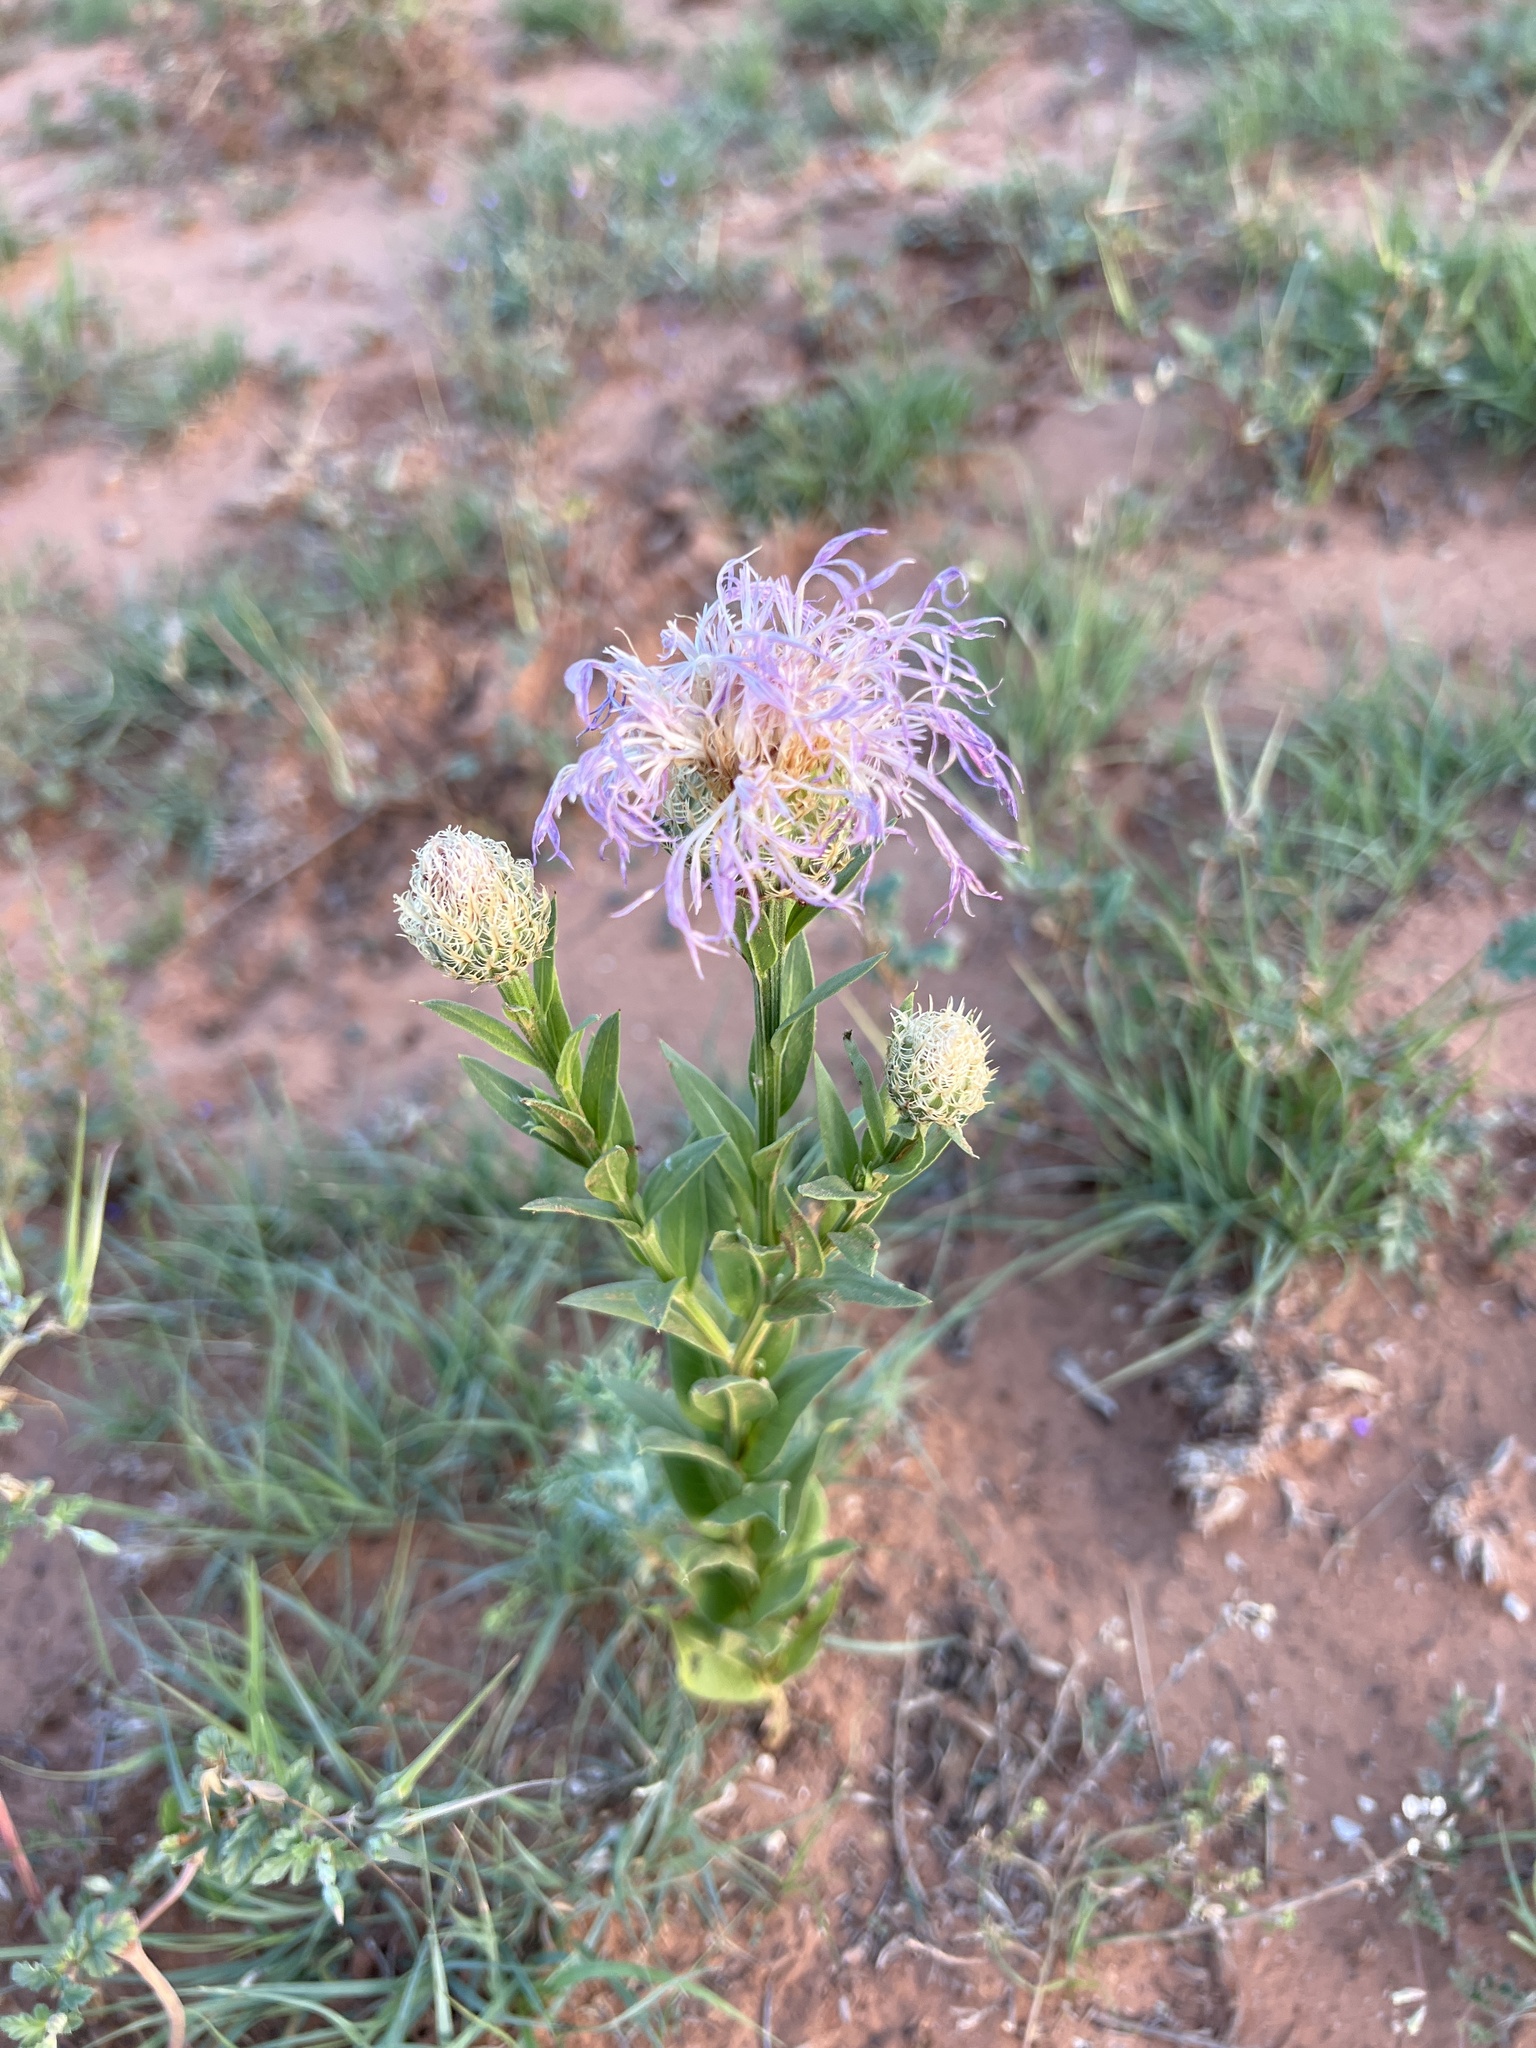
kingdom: Plantae
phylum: Tracheophyta
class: Magnoliopsida
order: Asterales
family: Asteraceae
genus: Plectocephalus
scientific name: Plectocephalus americanus
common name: American basket-flower
